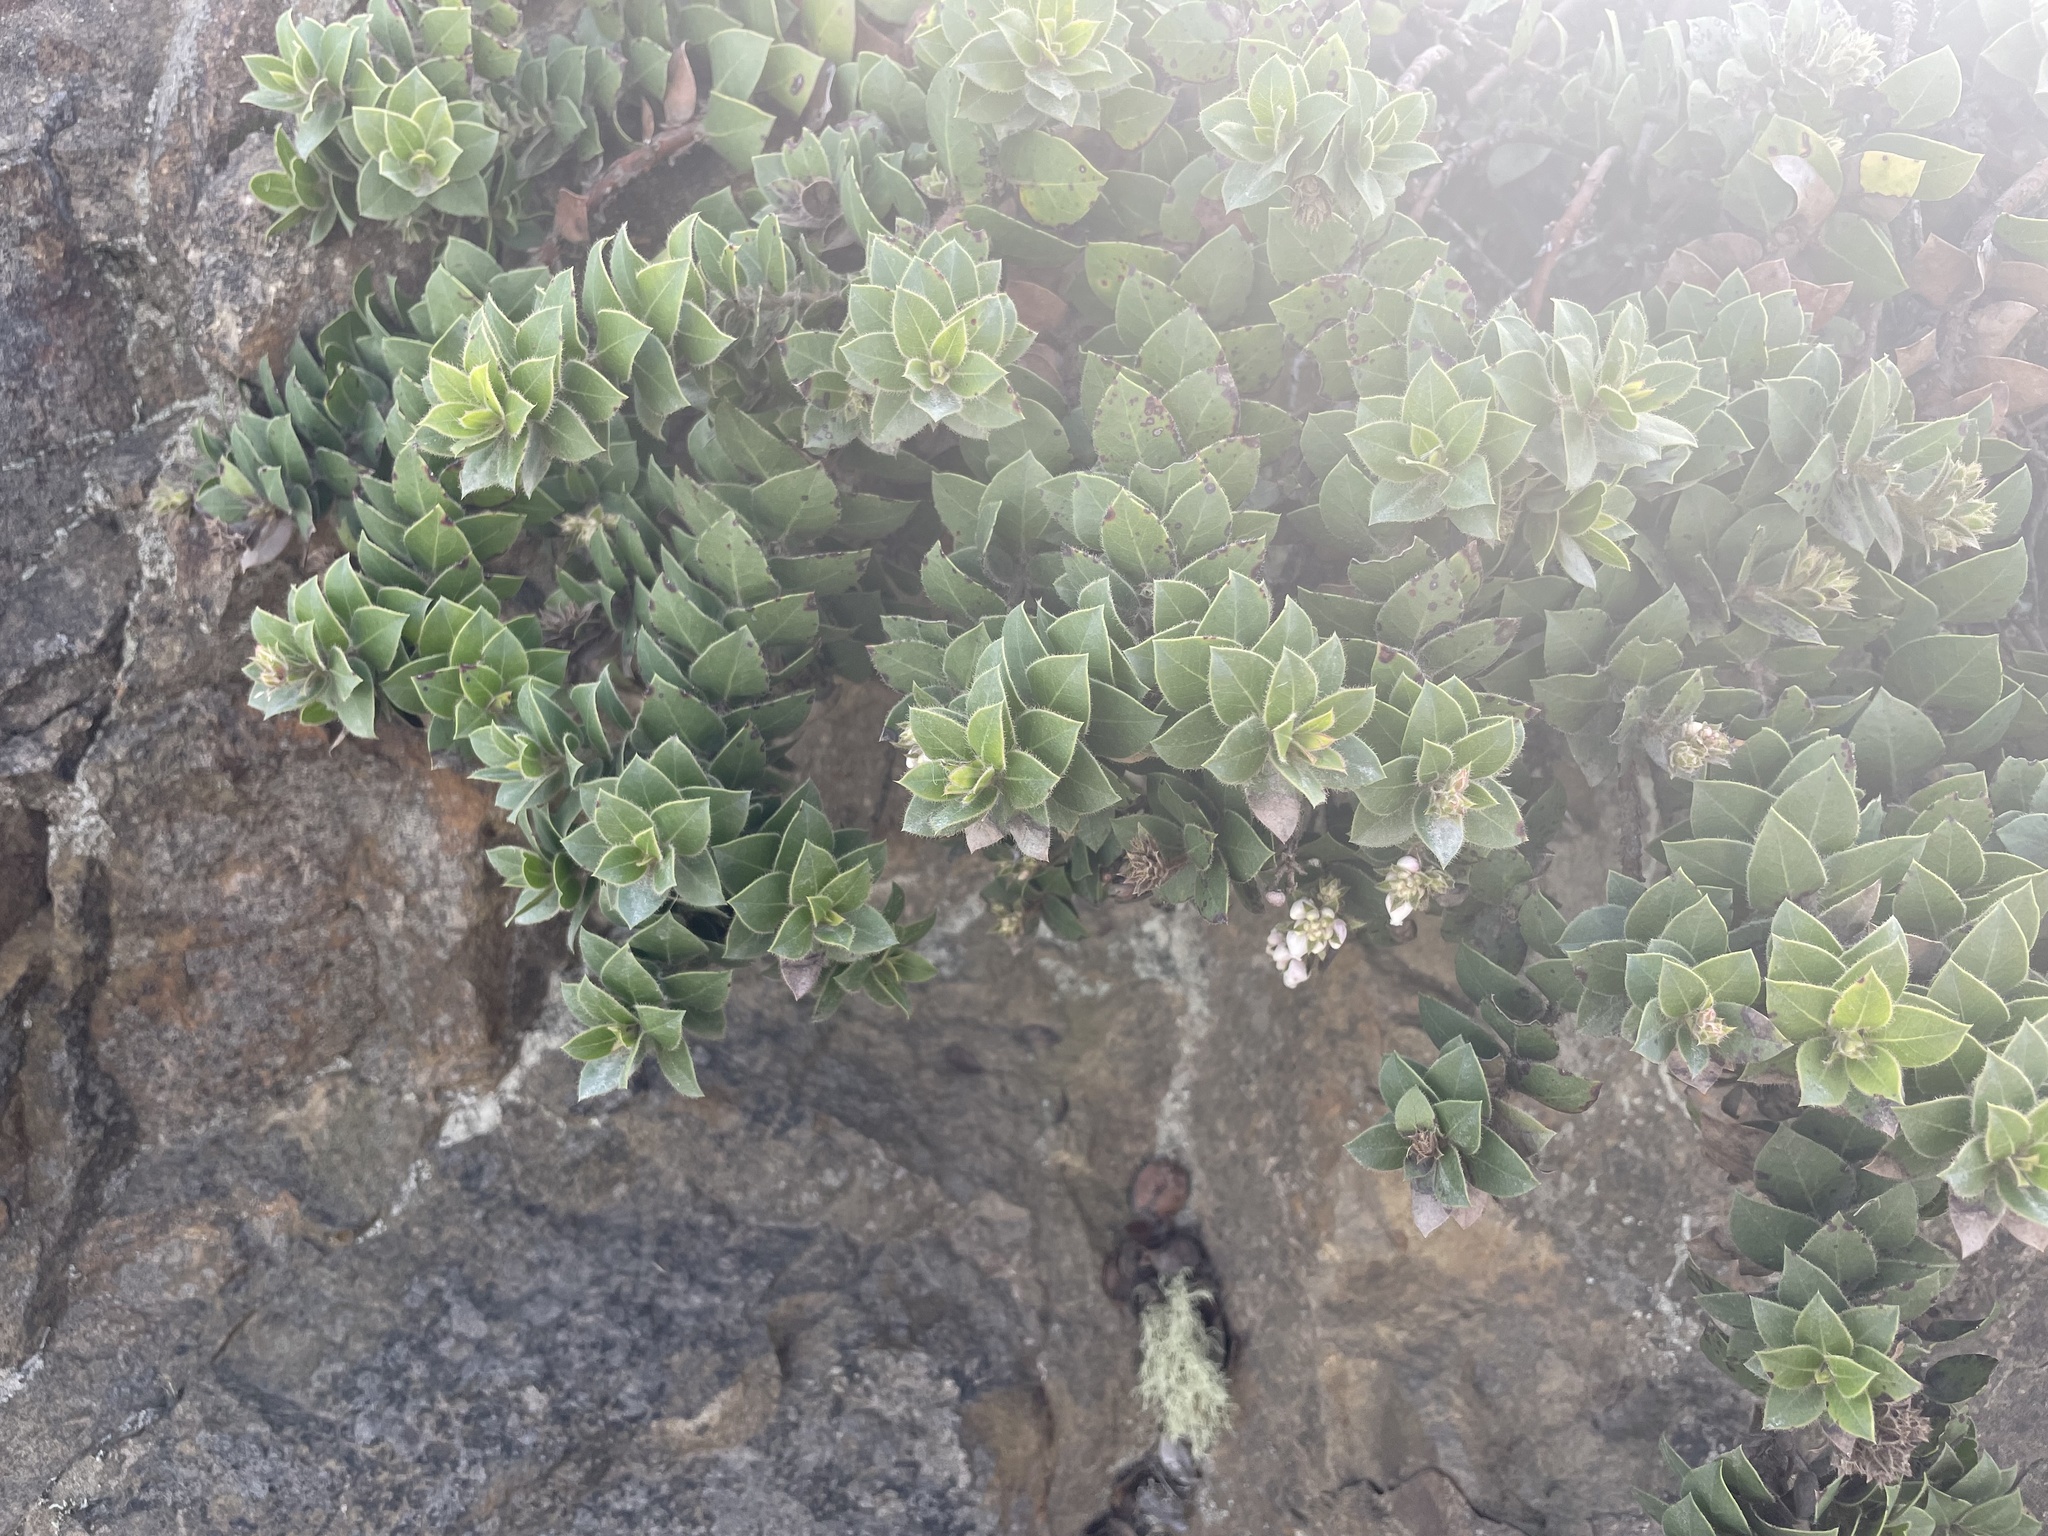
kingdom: Plantae
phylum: Tracheophyta
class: Magnoliopsida
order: Ericales
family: Ericaceae
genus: Arctostaphylos
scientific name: Arctostaphylos imbricata
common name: San bruno mountain manzanita
